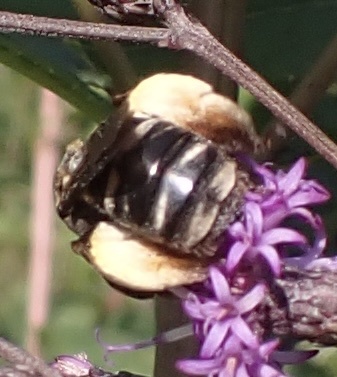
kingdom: Animalia
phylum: Arthropoda
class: Insecta
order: Hymenoptera
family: Apidae
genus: Svastra
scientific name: Svastra obliqua
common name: Oblique longhorn
